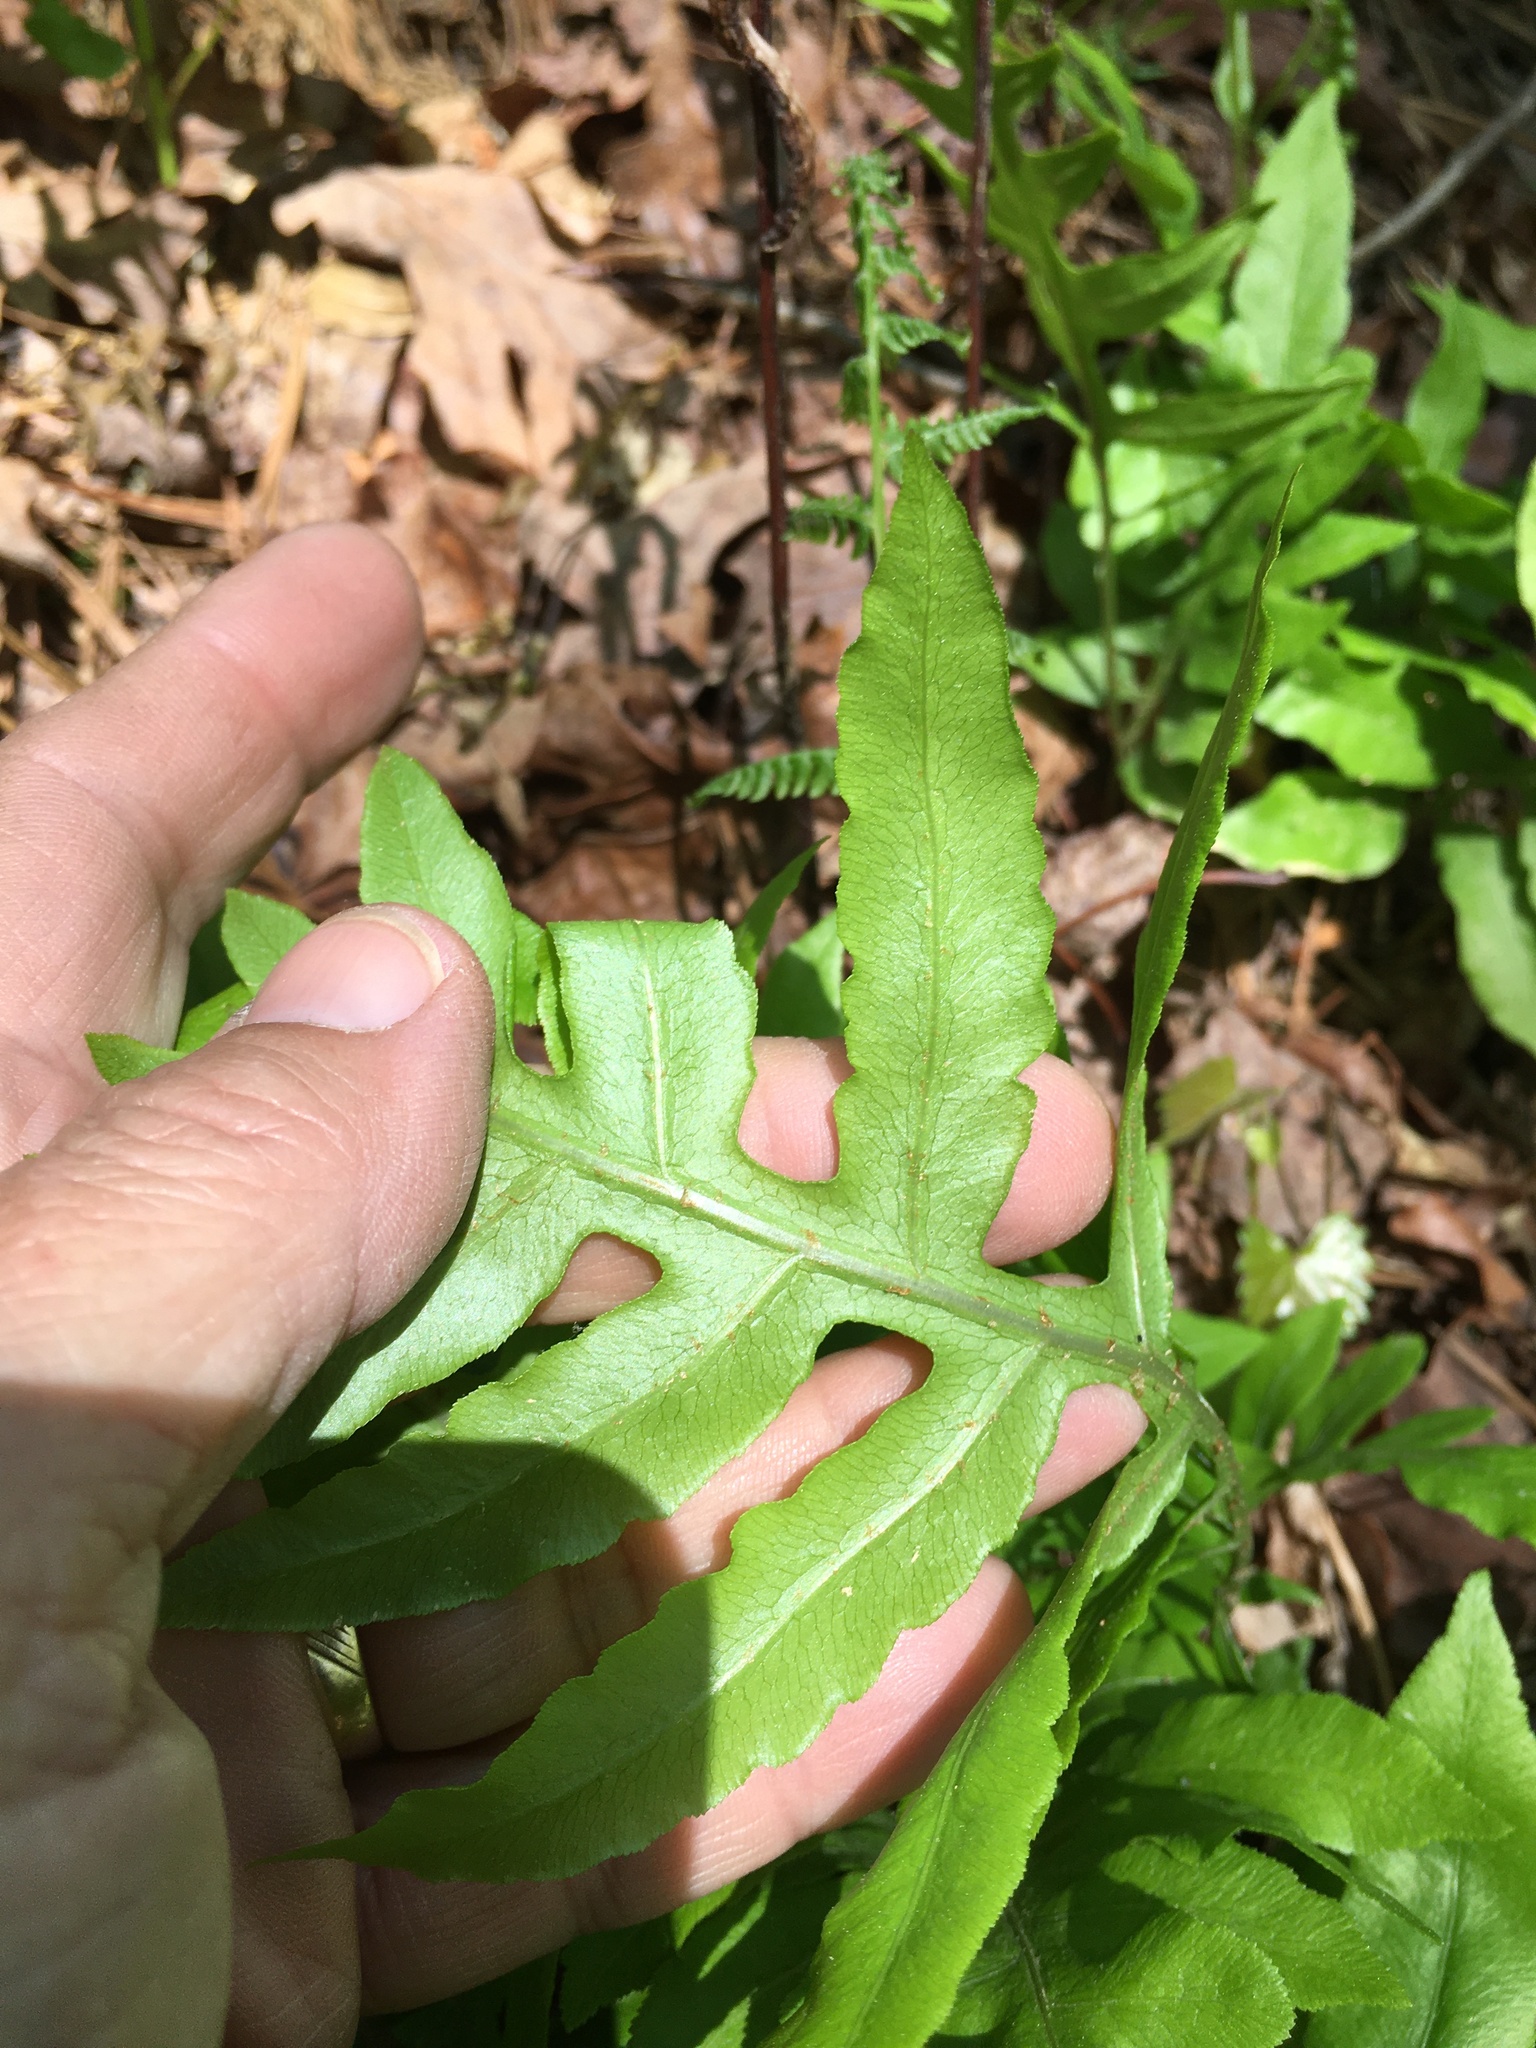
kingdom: Plantae
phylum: Tracheophyta
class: Polypodiopsida
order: Polypodiales
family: Blechnaceae
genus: Lorinseria
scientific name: Lorinseria areolata
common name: Dwarf chain fern
